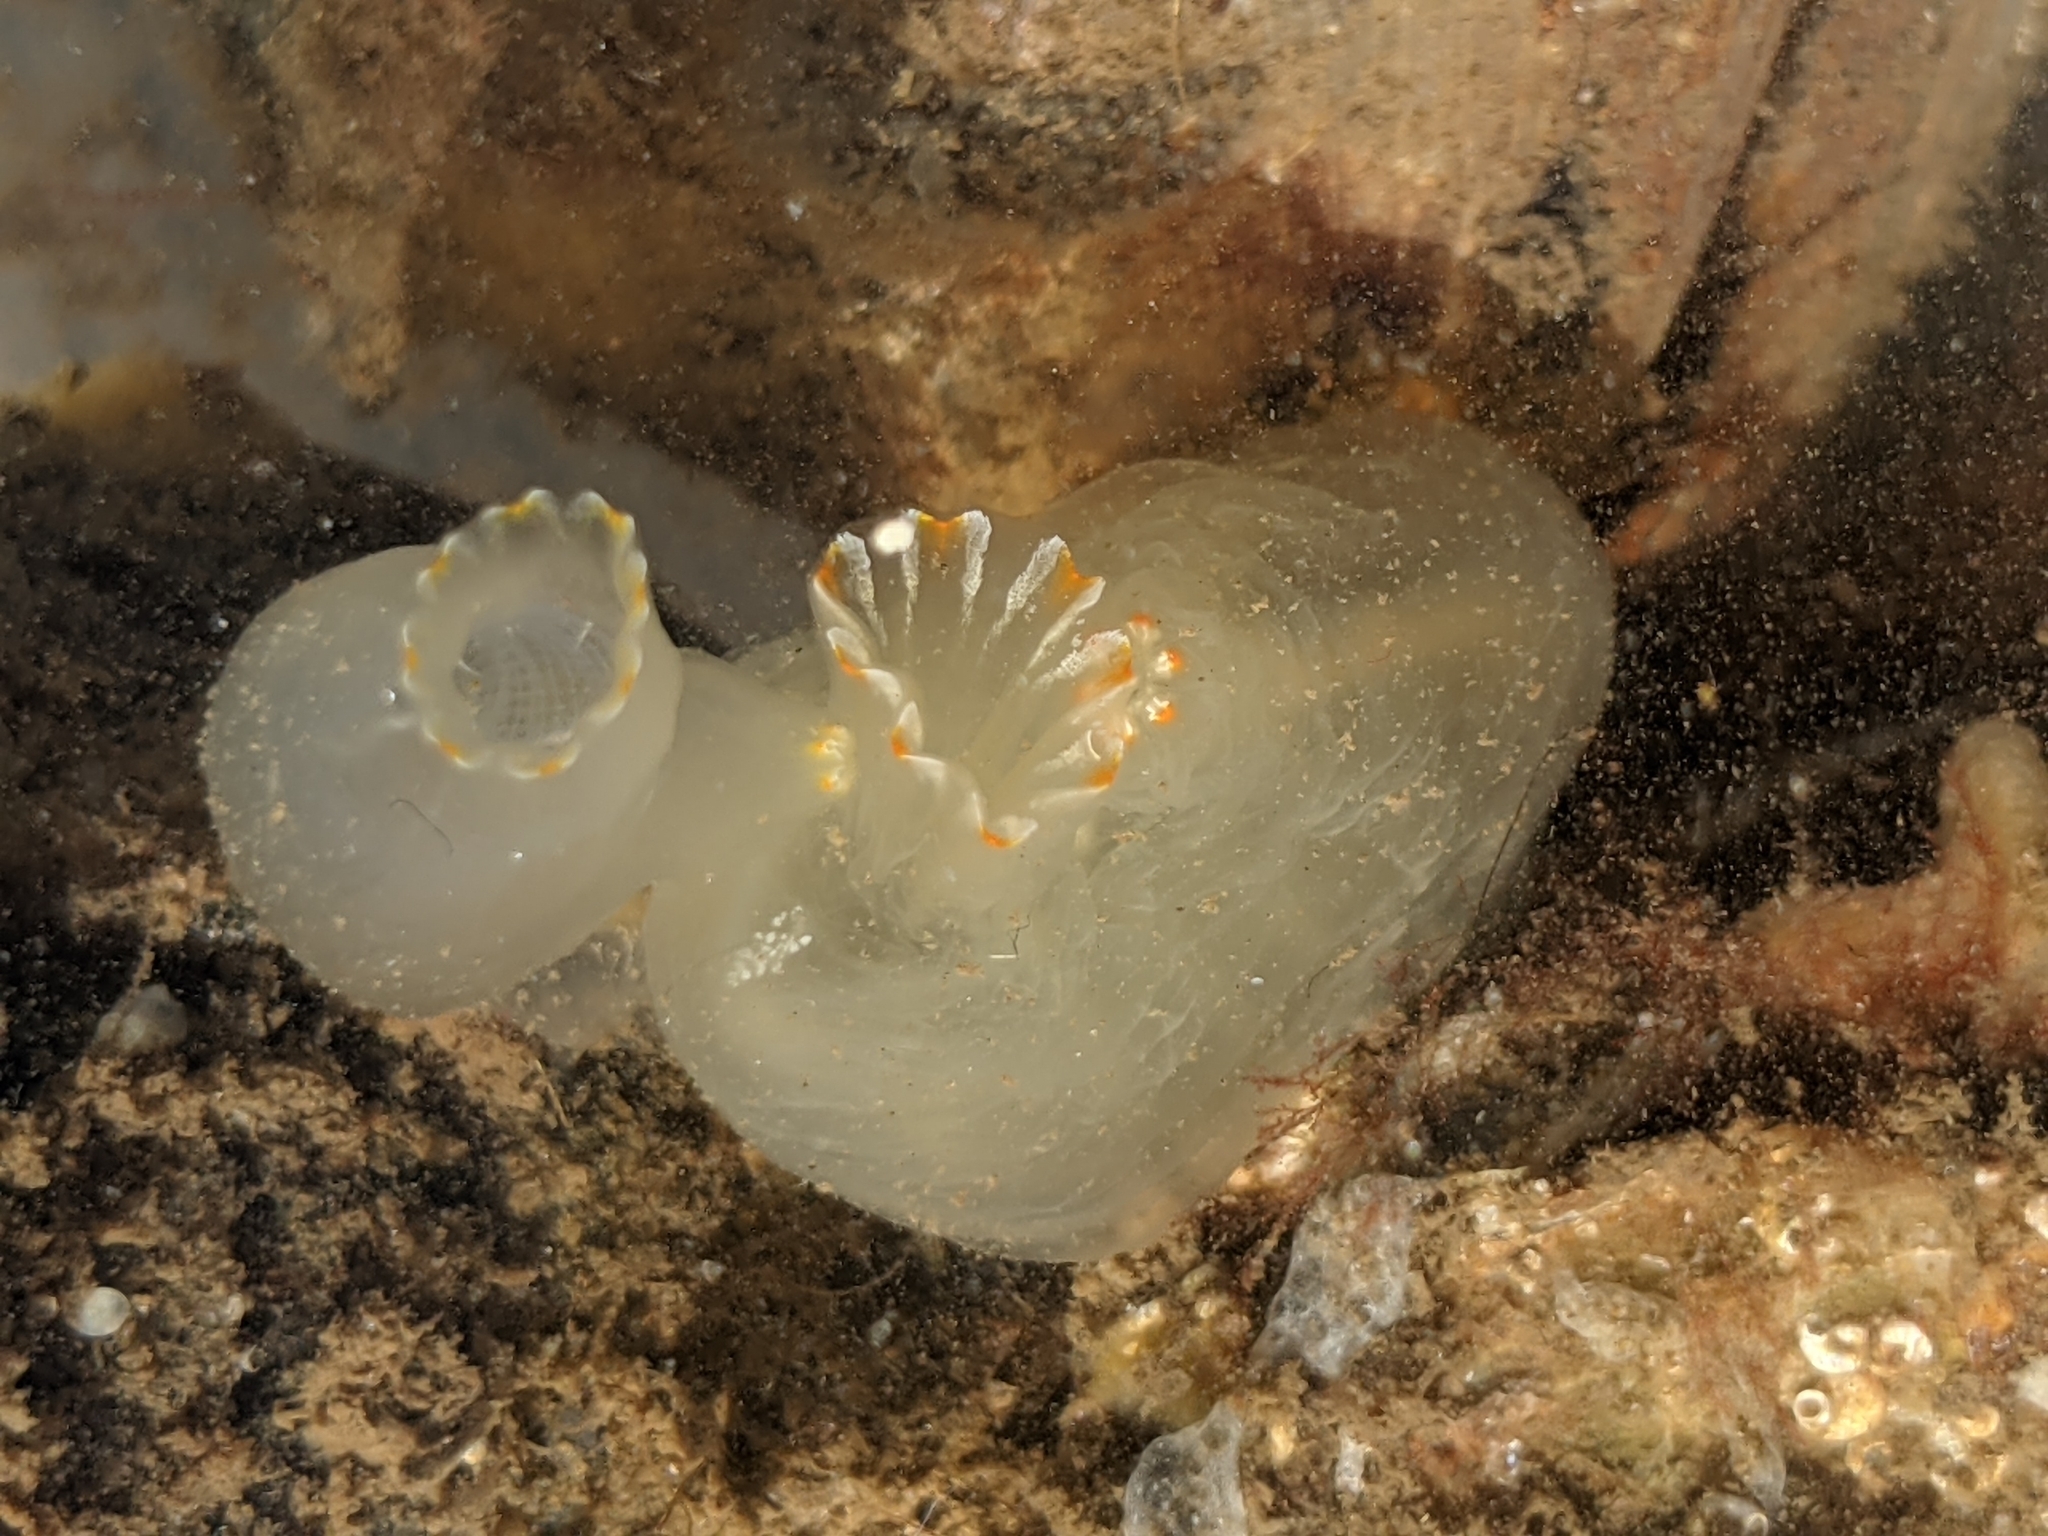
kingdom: Animalia
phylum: Chordata
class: Ascidiacea
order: Phlebobranchia
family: Cionidae
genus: Ciona
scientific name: Ciona savignyi
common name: Tunicate
